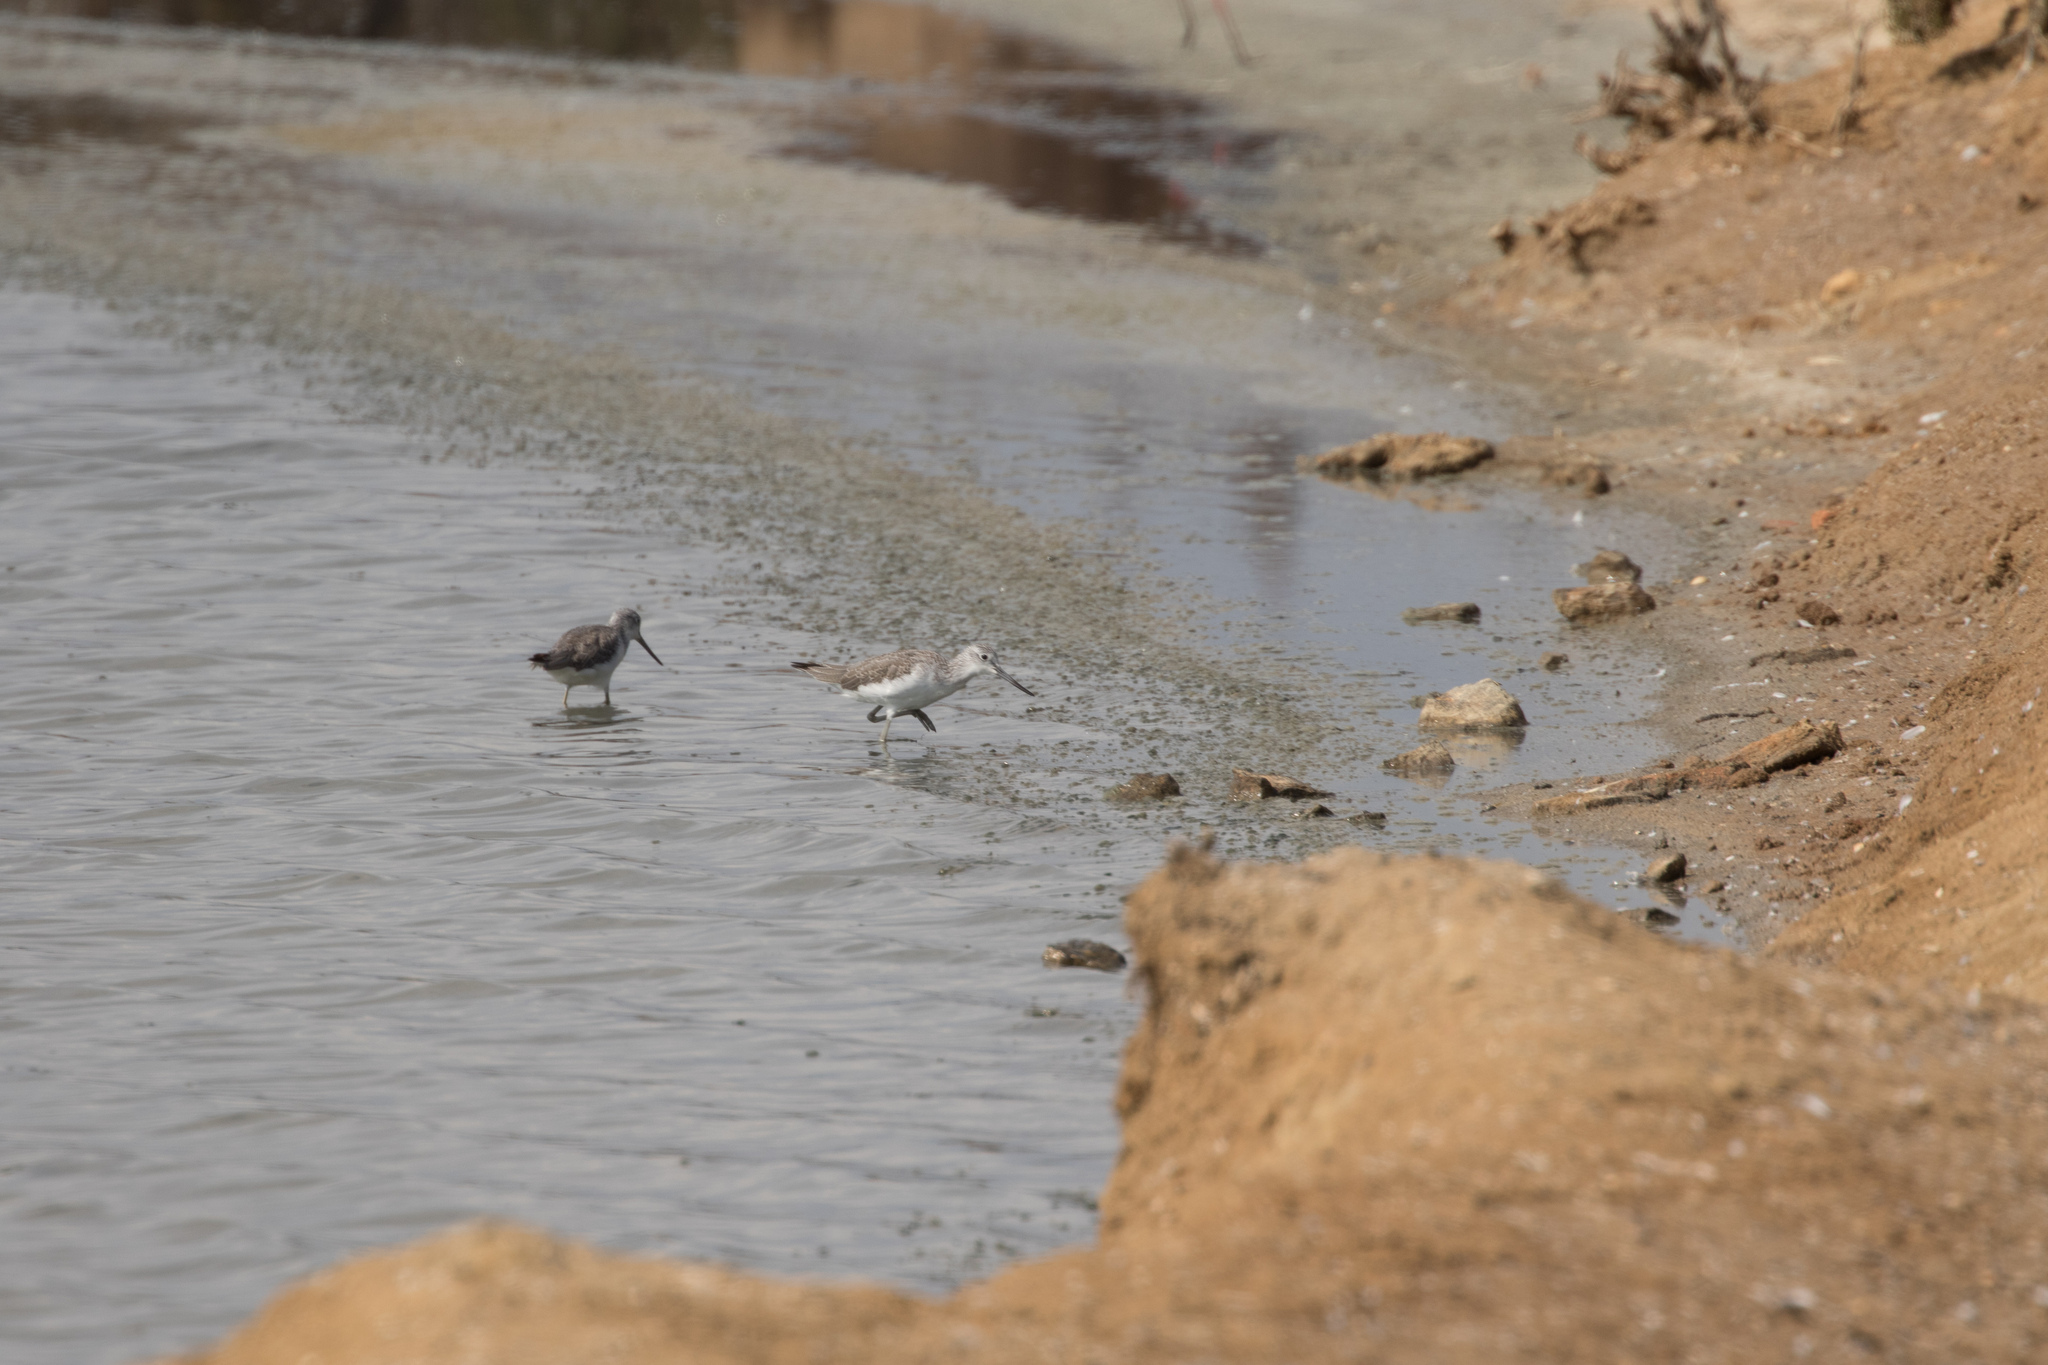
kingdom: Animalia
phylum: Chordata
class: Aves
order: Charadriiformes
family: Scolopacidae
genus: Tringa
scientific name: Tringa nebularia
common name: Common greenshank
